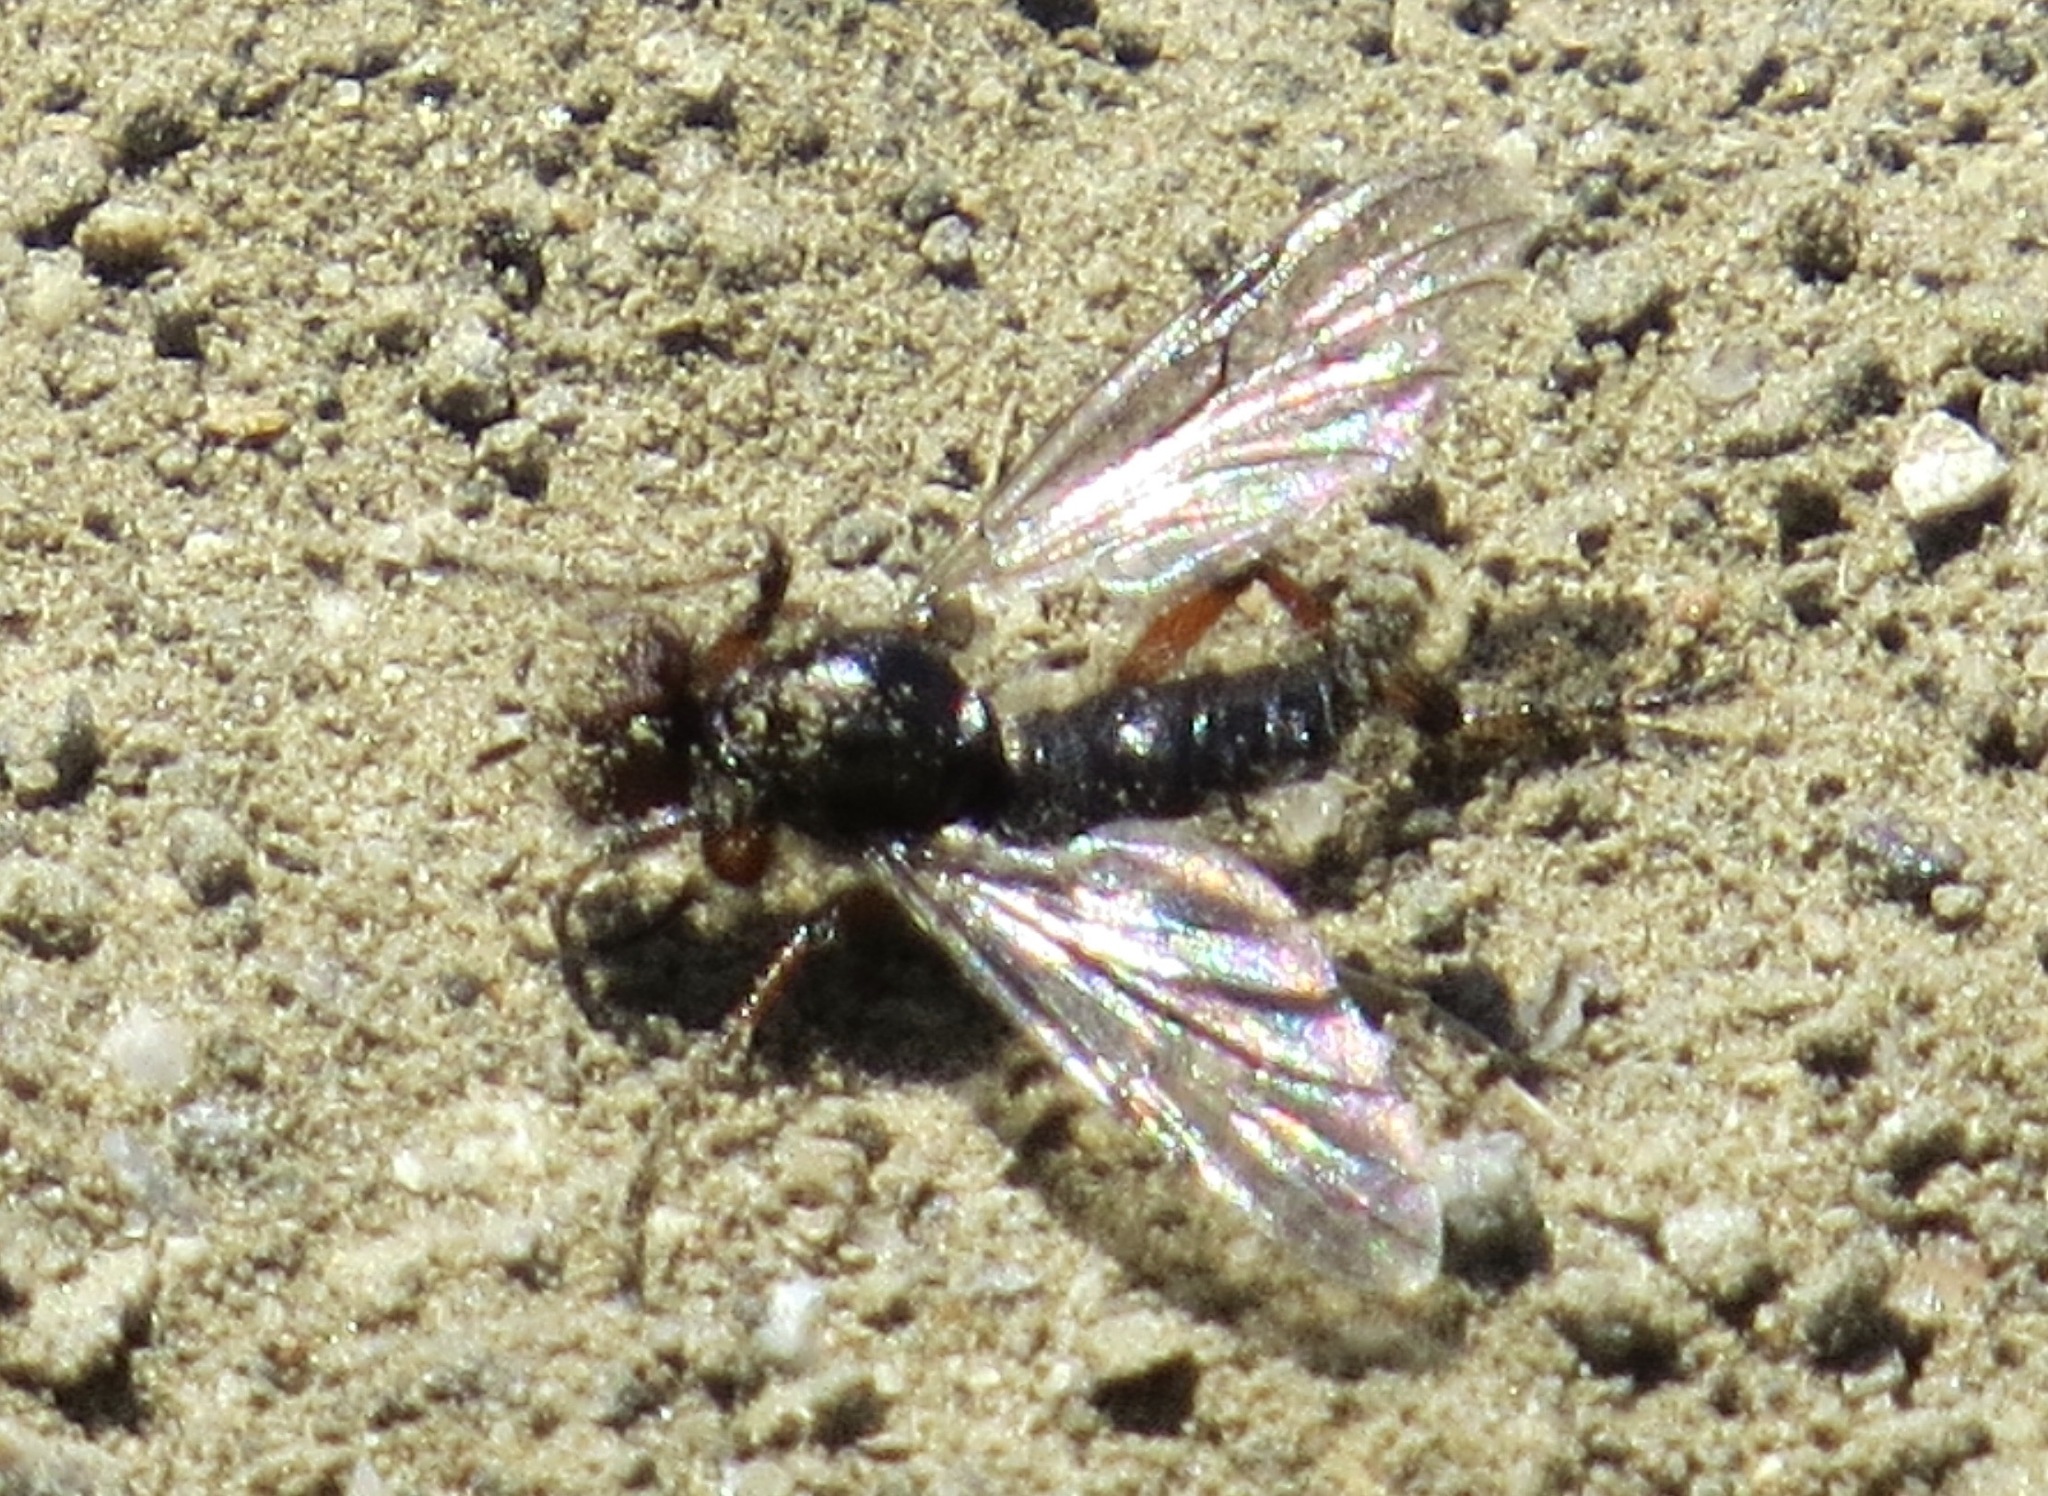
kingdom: Animalia
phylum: Arthropoda
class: Insecta
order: Diptera
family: Bibionidae
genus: Bibio
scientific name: Bibio
